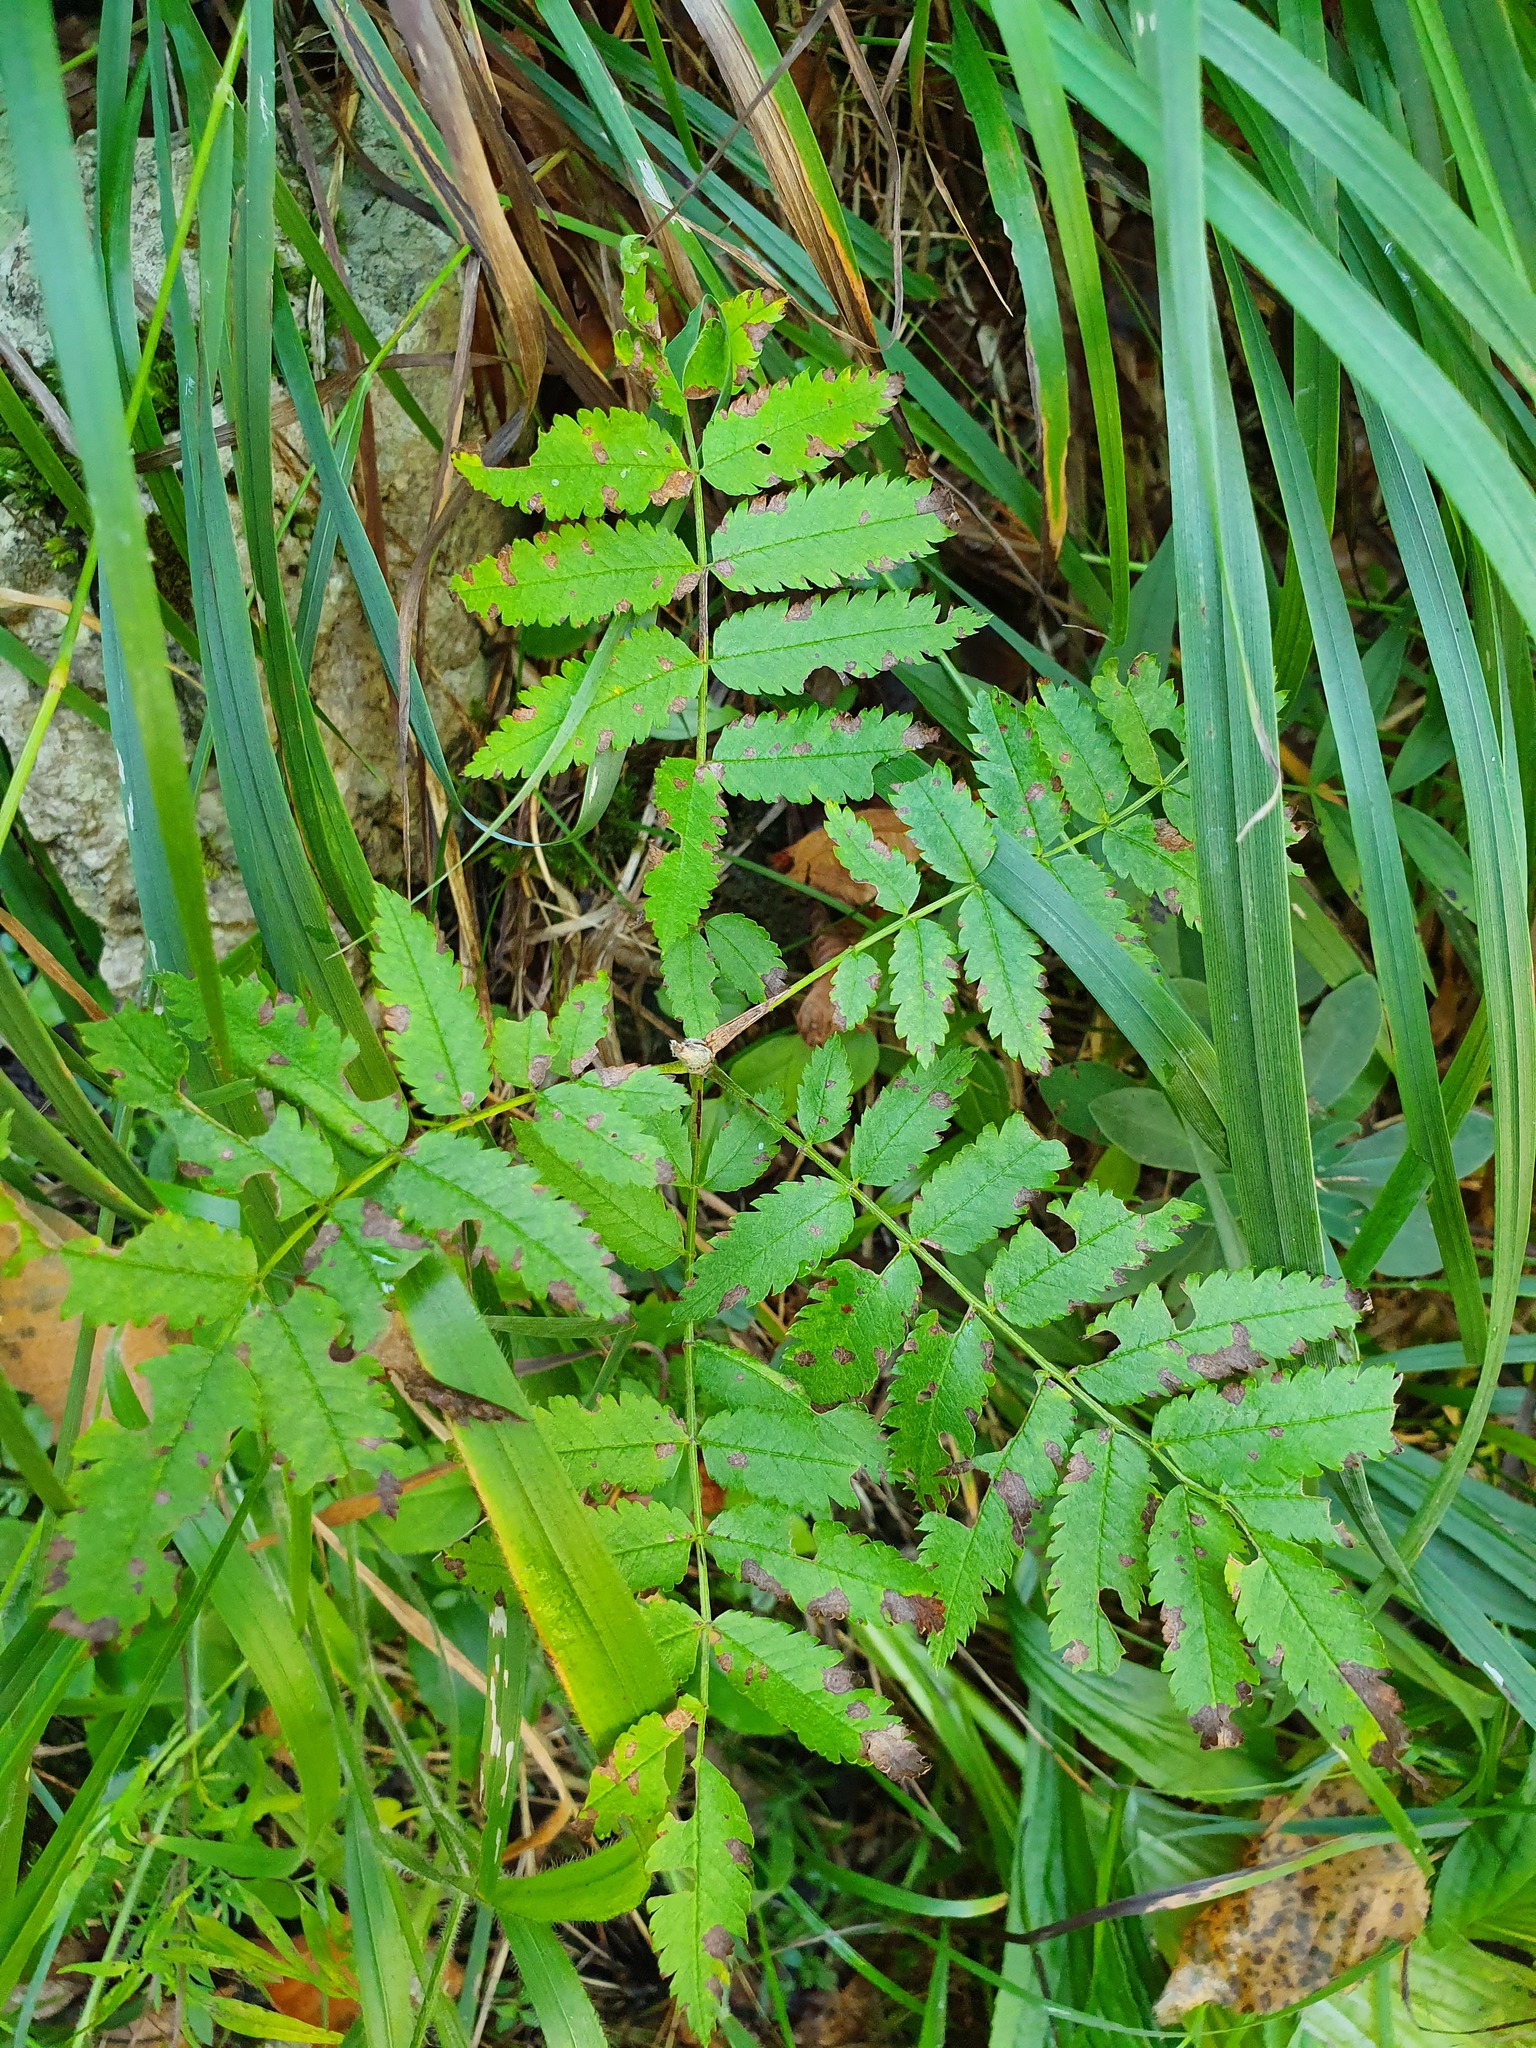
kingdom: Plantae
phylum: Tracheophyta
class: Magnoliopsida
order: Rosales
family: Rosaceae
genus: Sorbus
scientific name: Sorbus aucuparia
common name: Rowan
